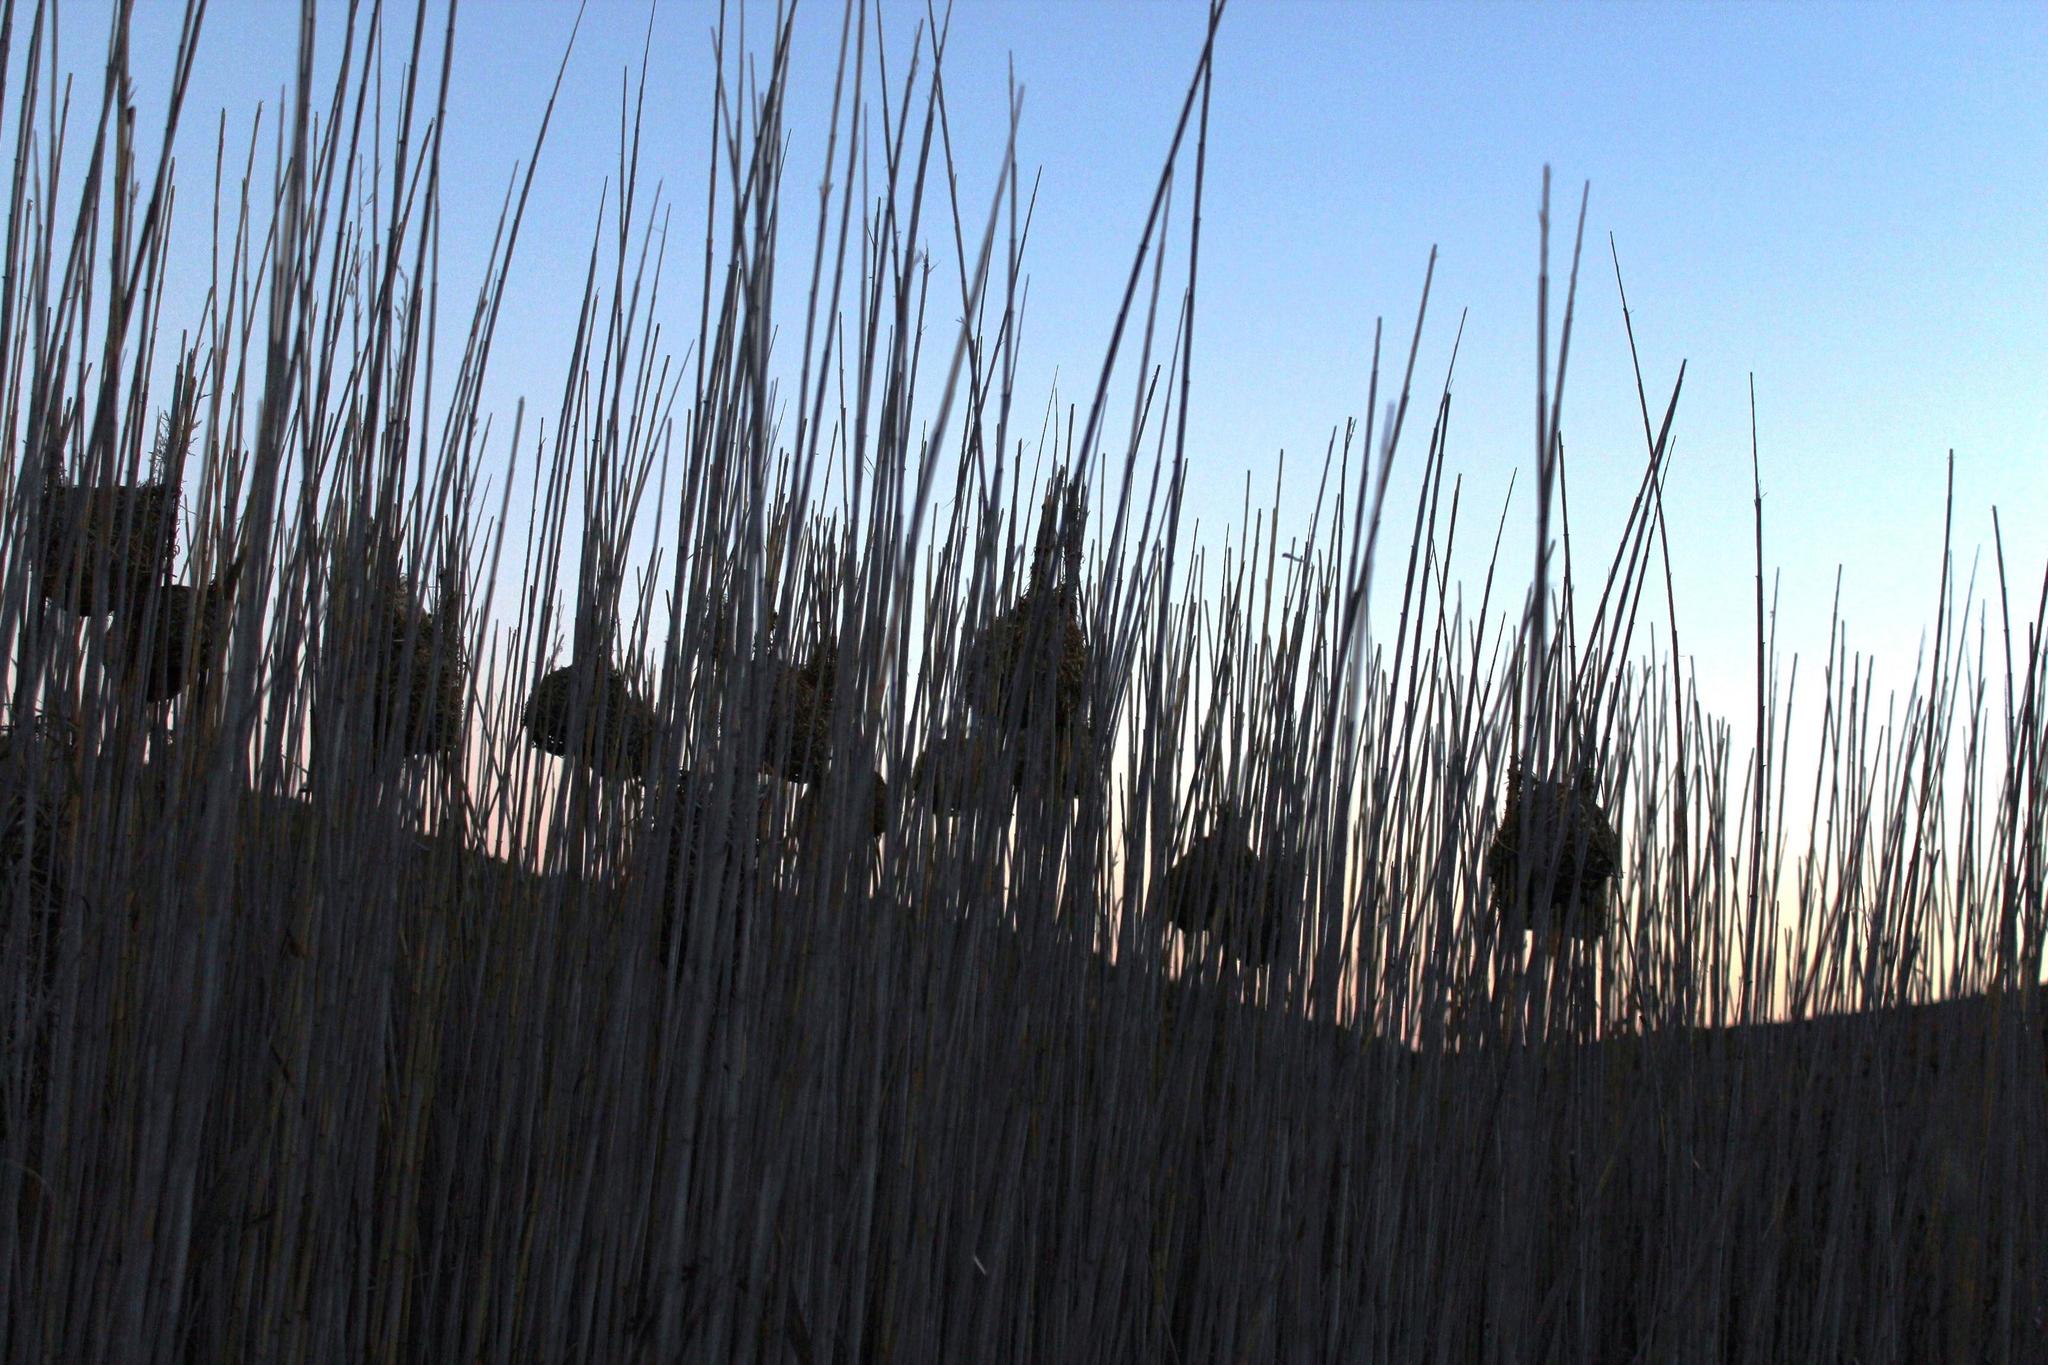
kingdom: Animalia
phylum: Chordata
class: Aves
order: Passeriformes
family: Ploceidae
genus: Euplectes
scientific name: Euplectes orix
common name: Southern red bishop
